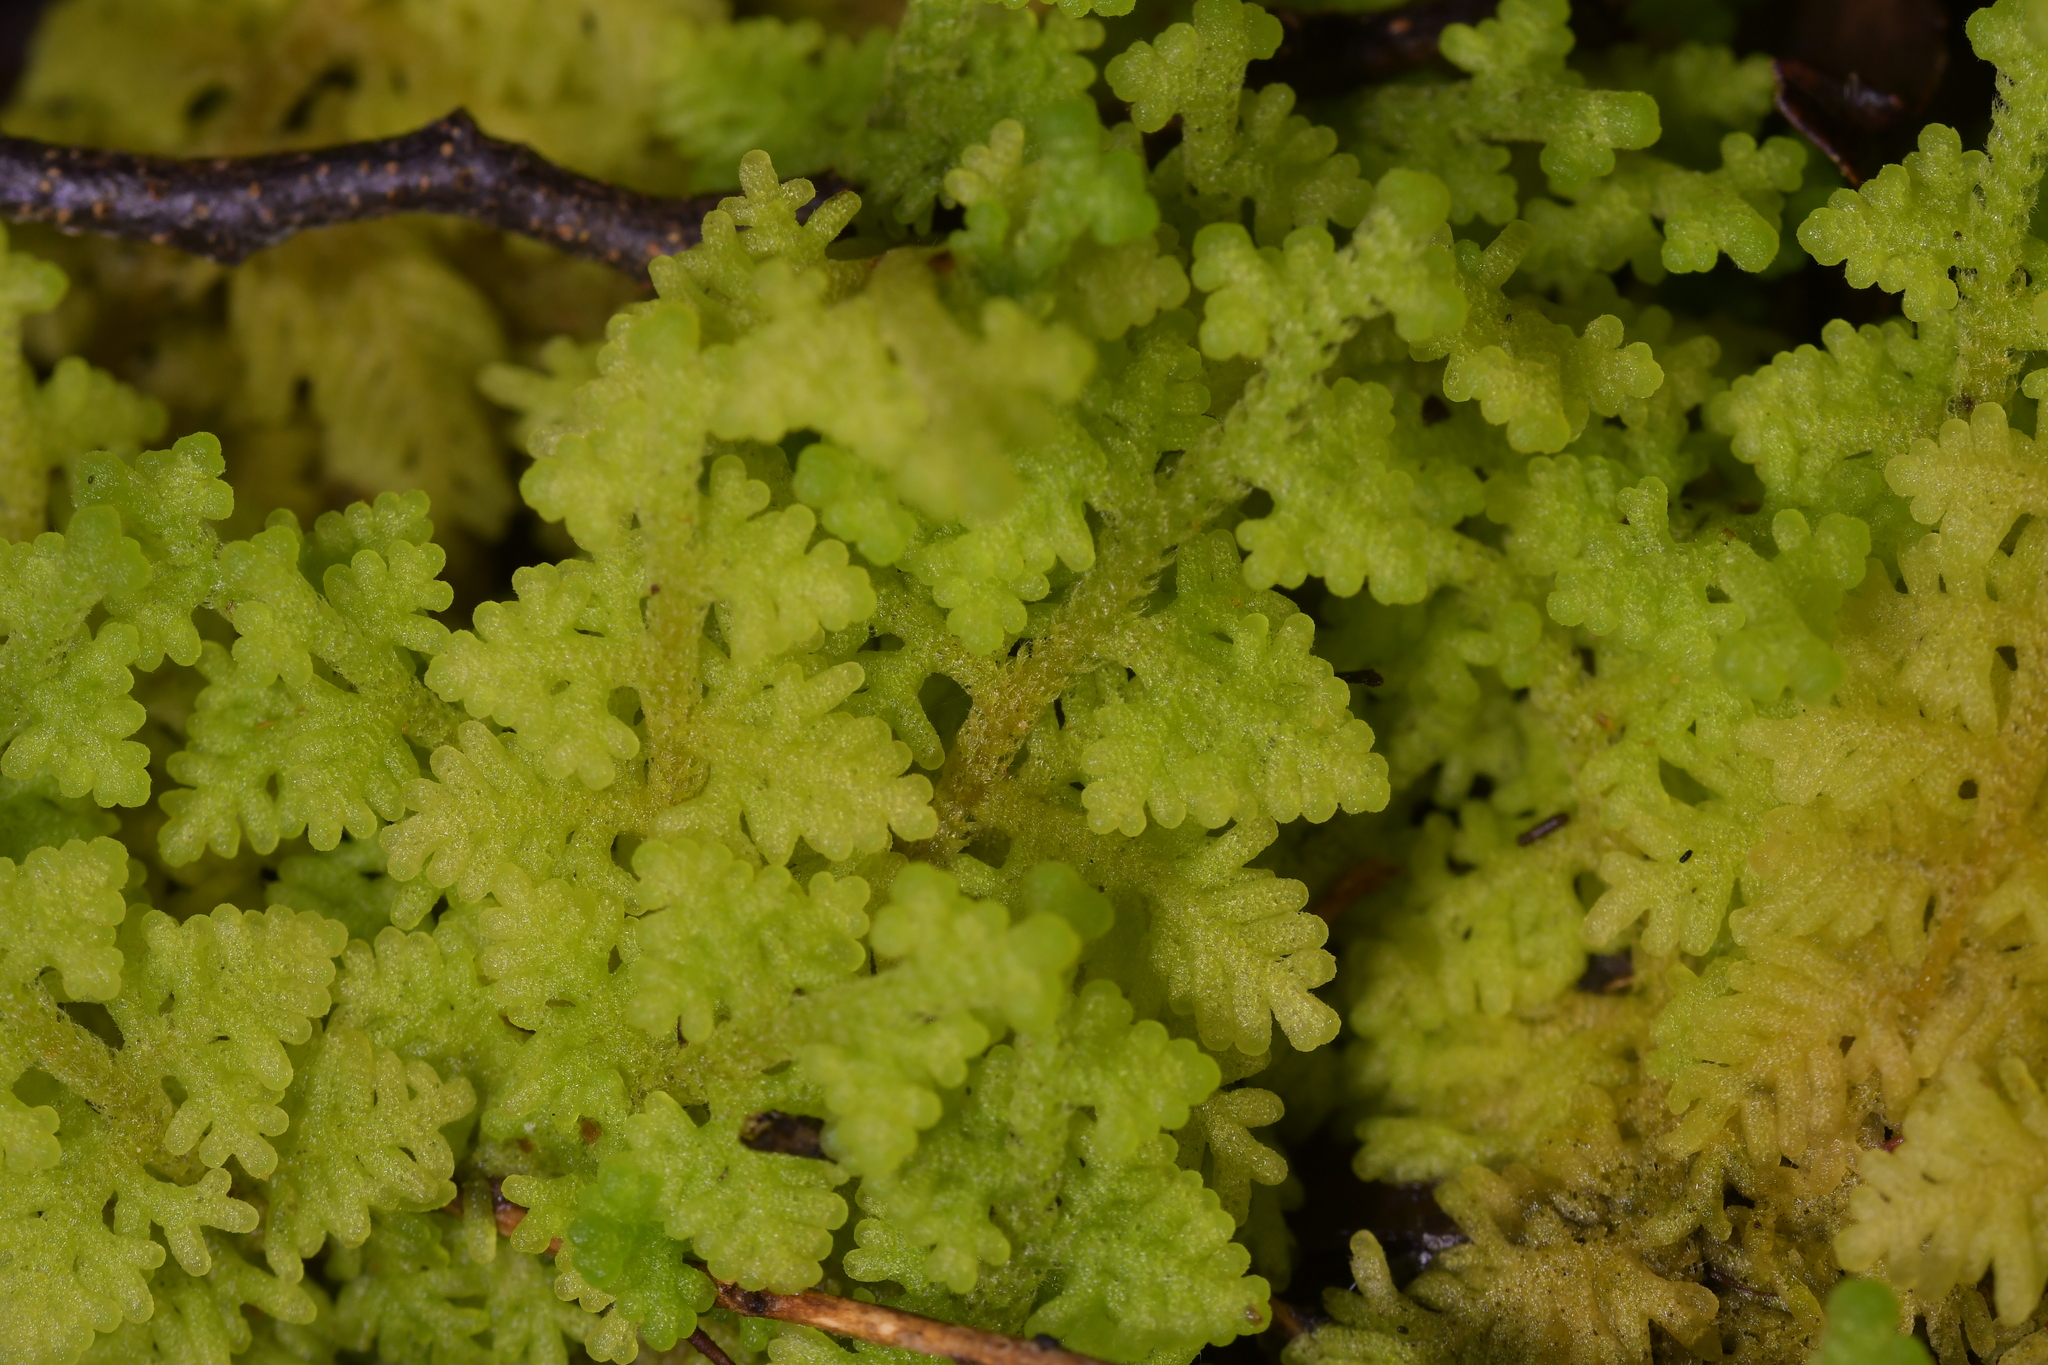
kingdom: Plantae
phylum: Marchantiophyta
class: Jungermanniopsida
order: Jungermanniales
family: Trichocoleaceae
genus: Trichocolea
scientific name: Trichocolea mollissima
